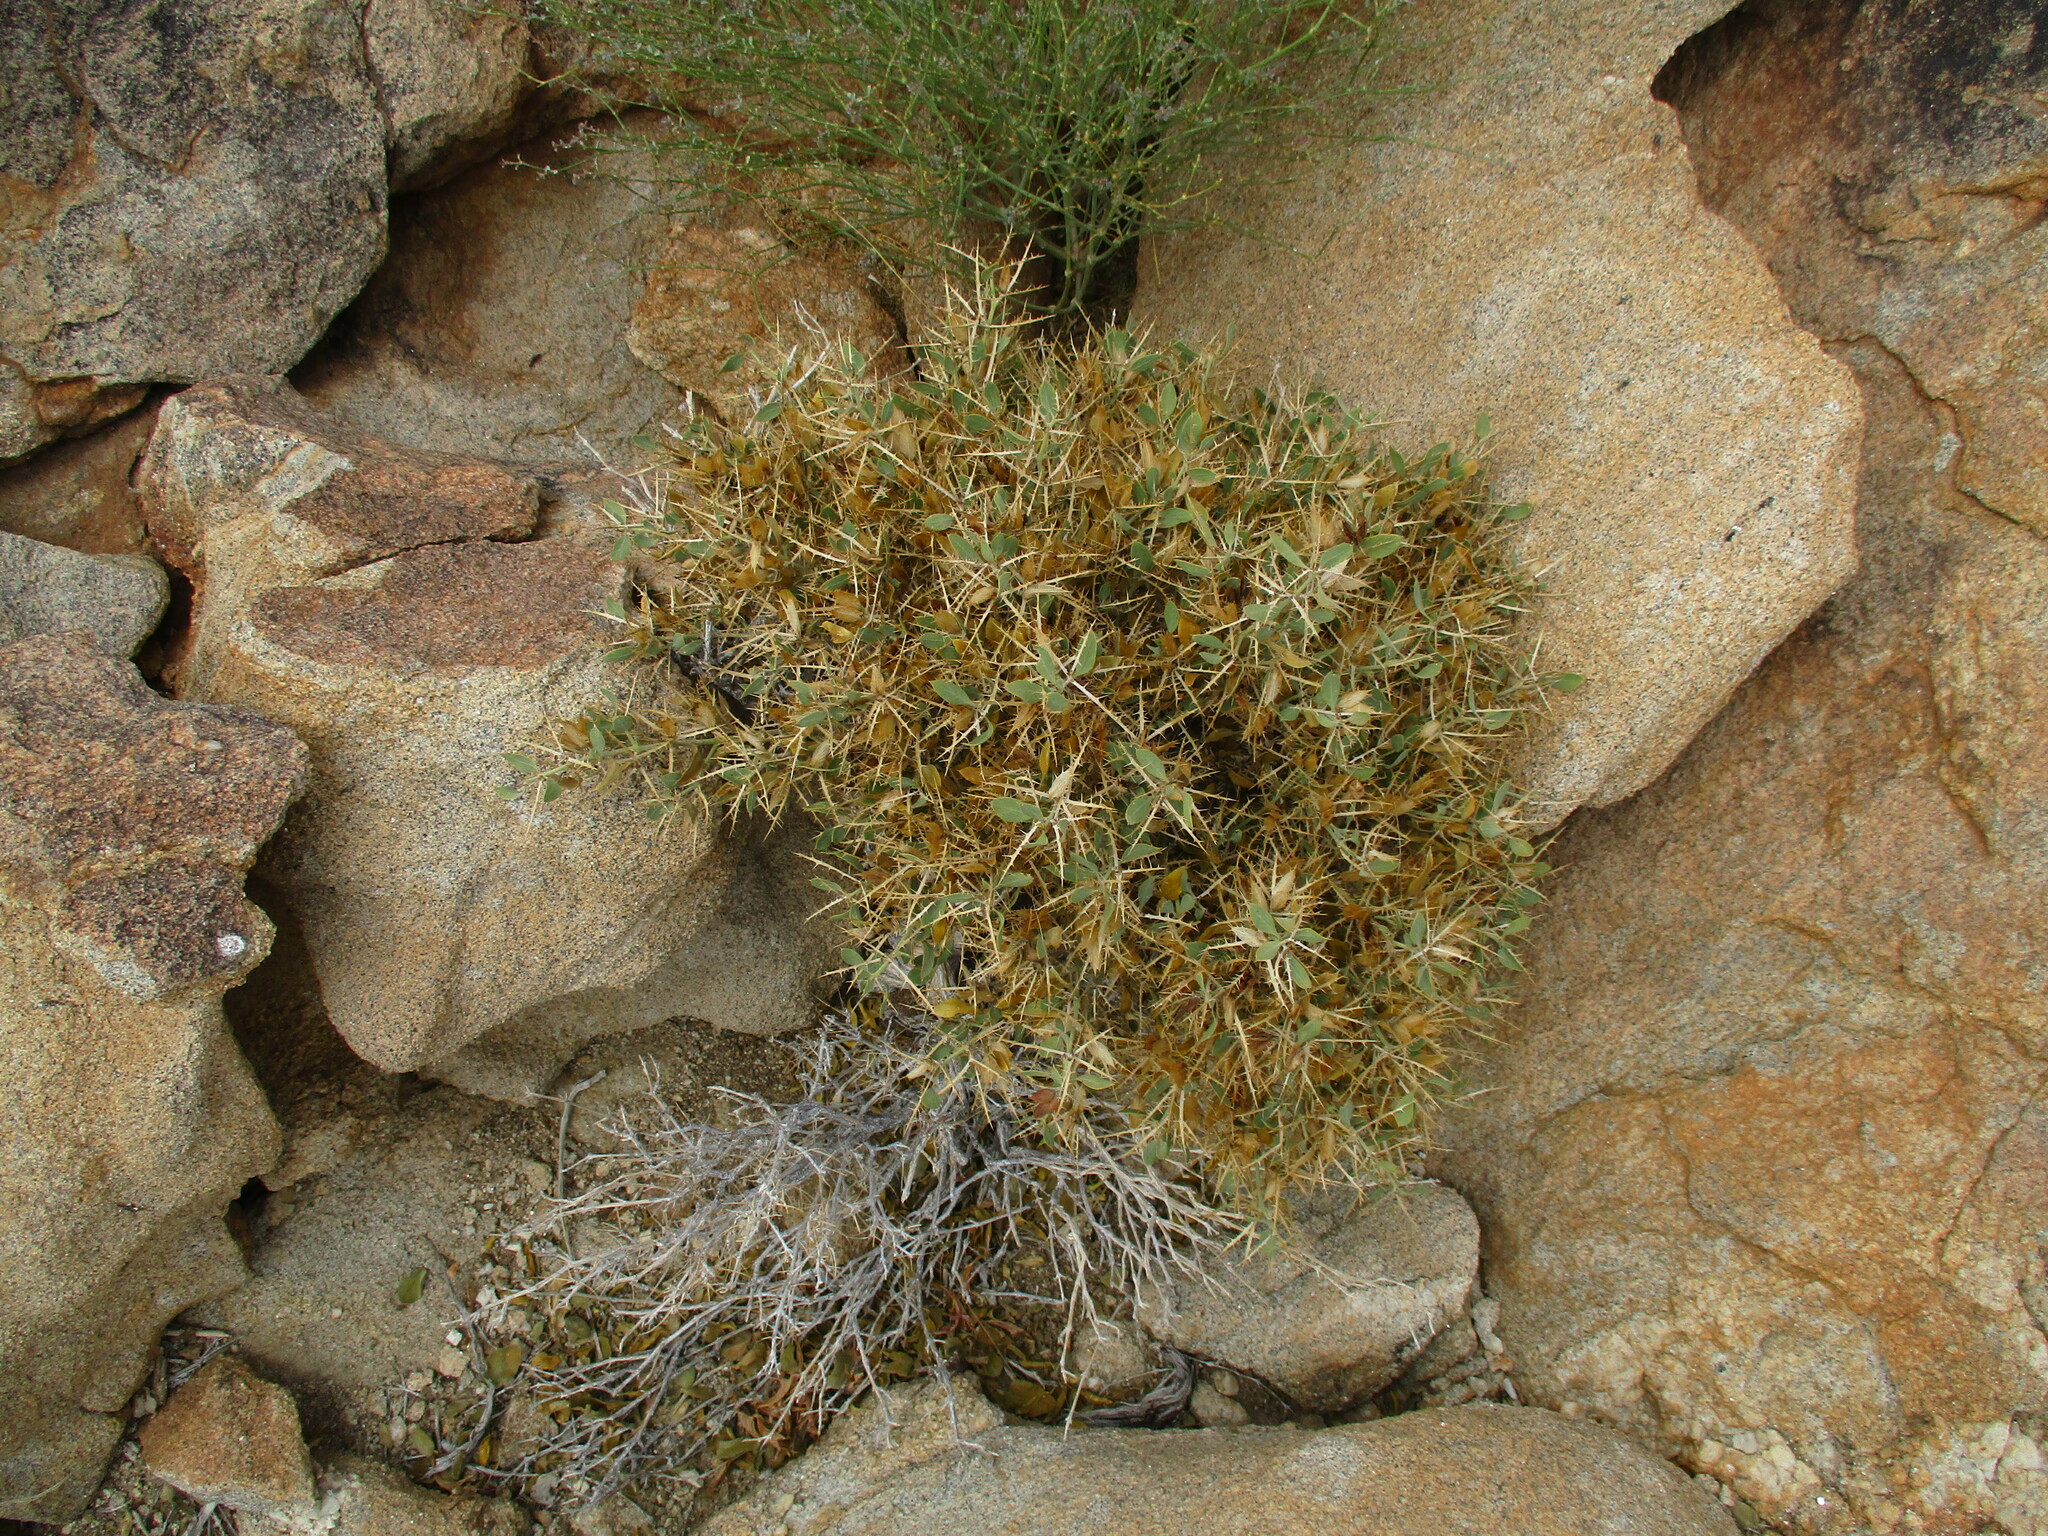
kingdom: Plantae
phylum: Tracheophyta
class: Magnoliopsida
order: Lamiales
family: Acanthaceae
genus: Barleria
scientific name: Barleria merxmuelleri
